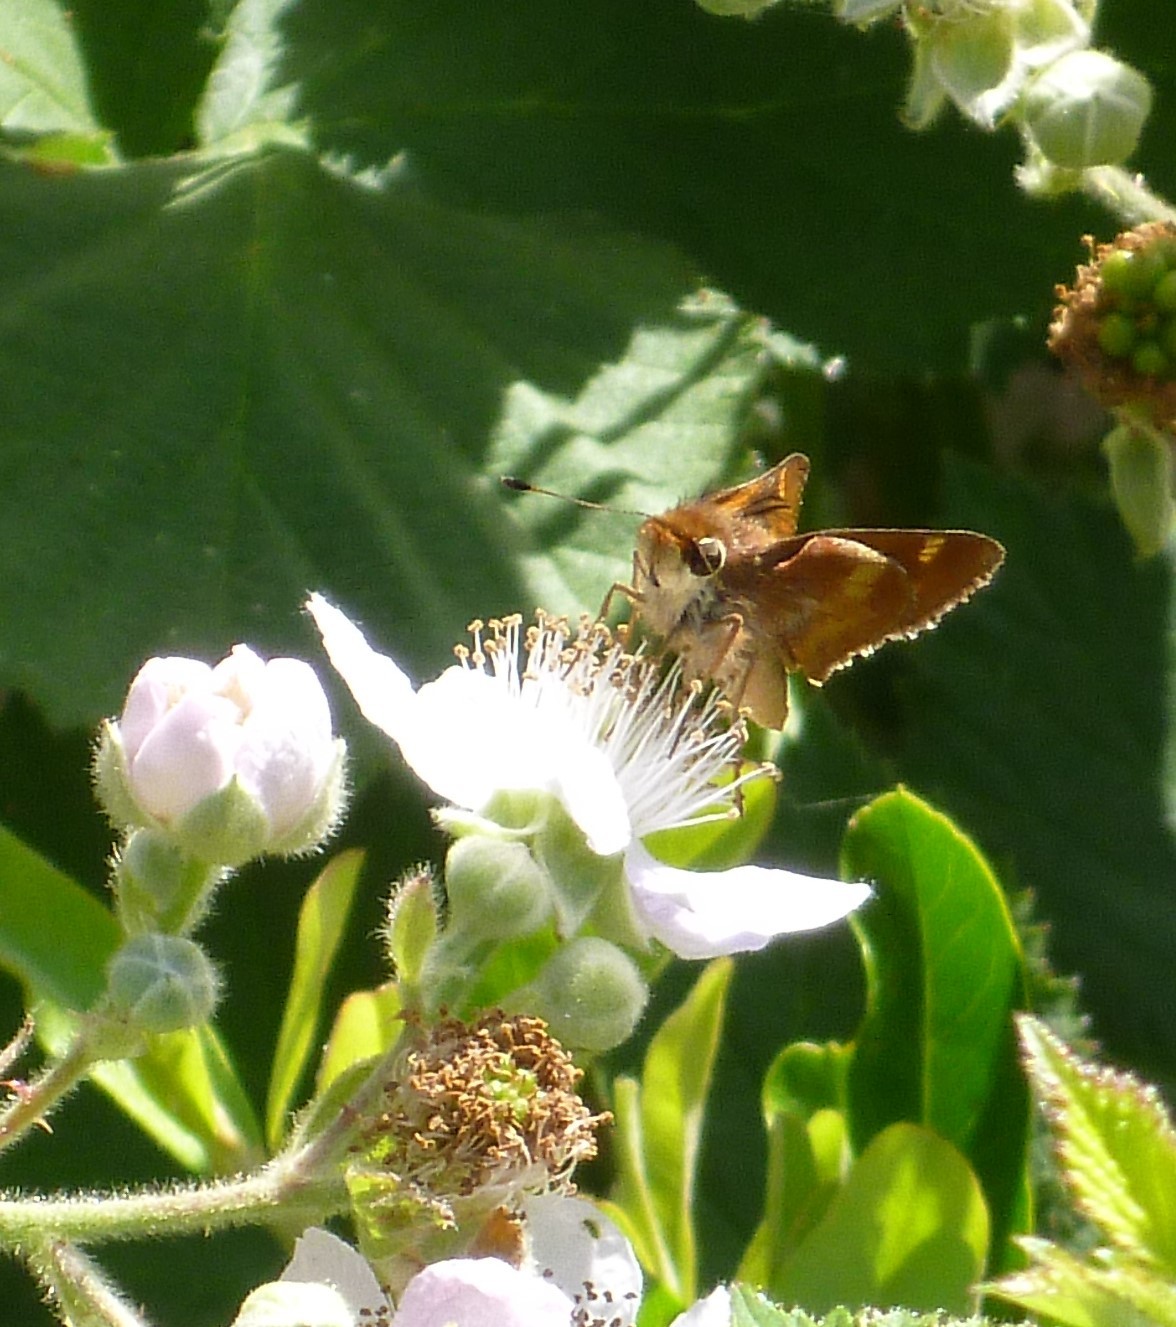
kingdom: Animalia
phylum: Arthropoda
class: Insecta
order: Lepidoptera
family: Hesperiidae
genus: Lon
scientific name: Lon melane
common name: Umber skipper
